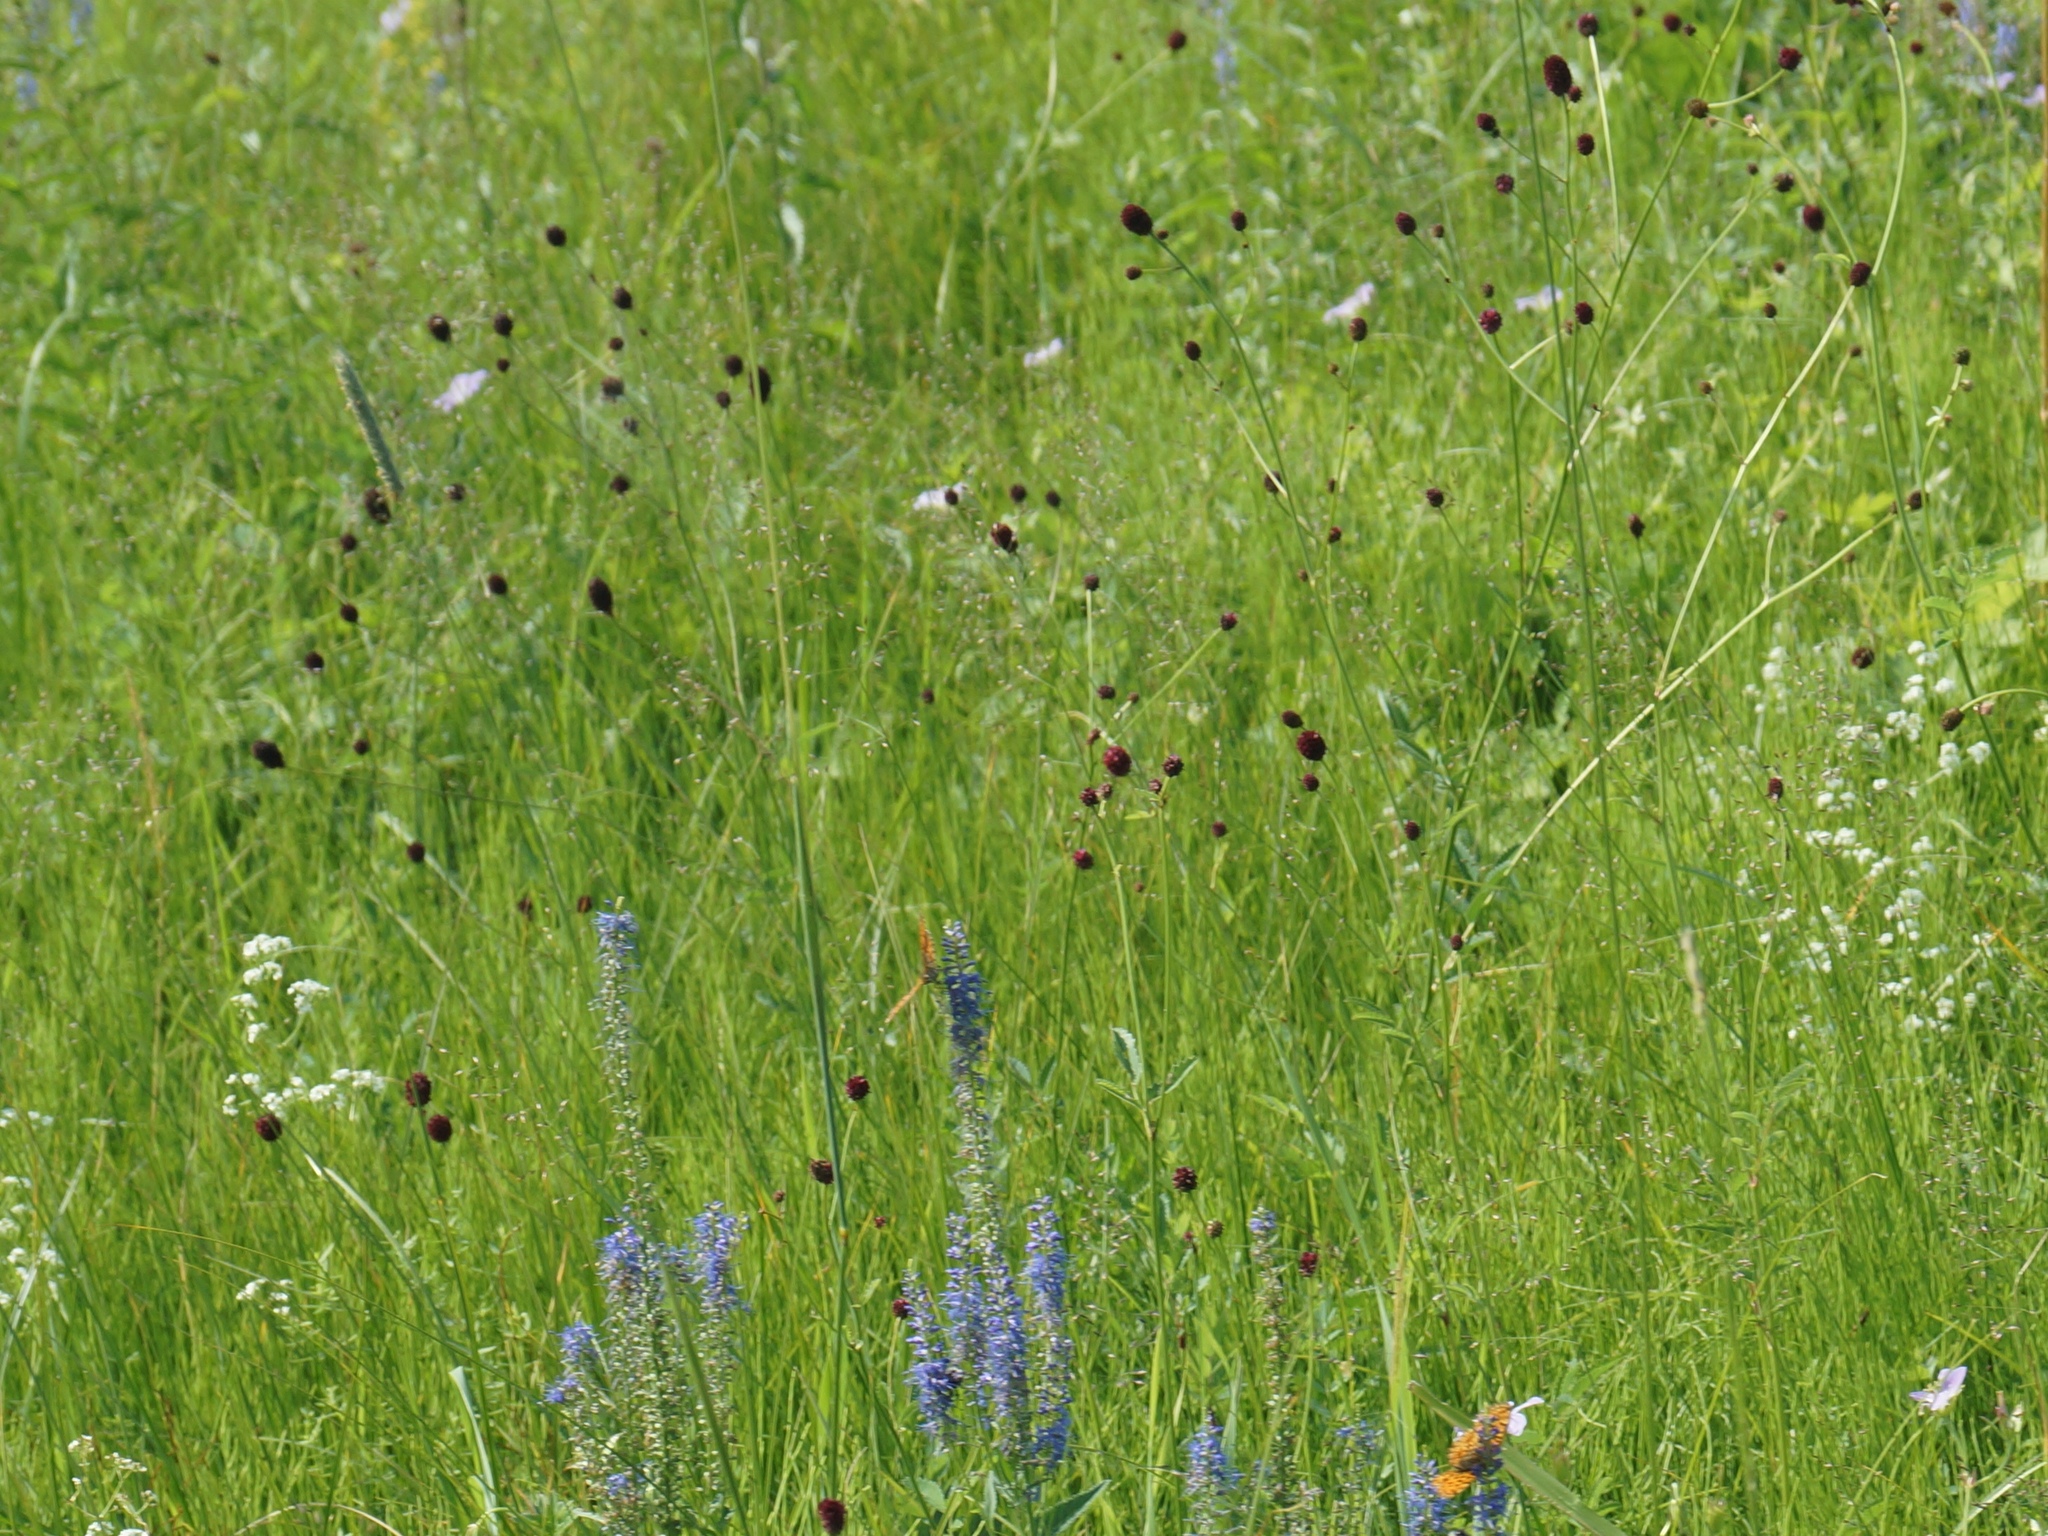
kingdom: Plantae
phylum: Tracheophyta
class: Magnoliopsida
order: Rosales
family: Rosaceae
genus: Sanguisorba
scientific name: Sanguisorba officinalis
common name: Great burnet
